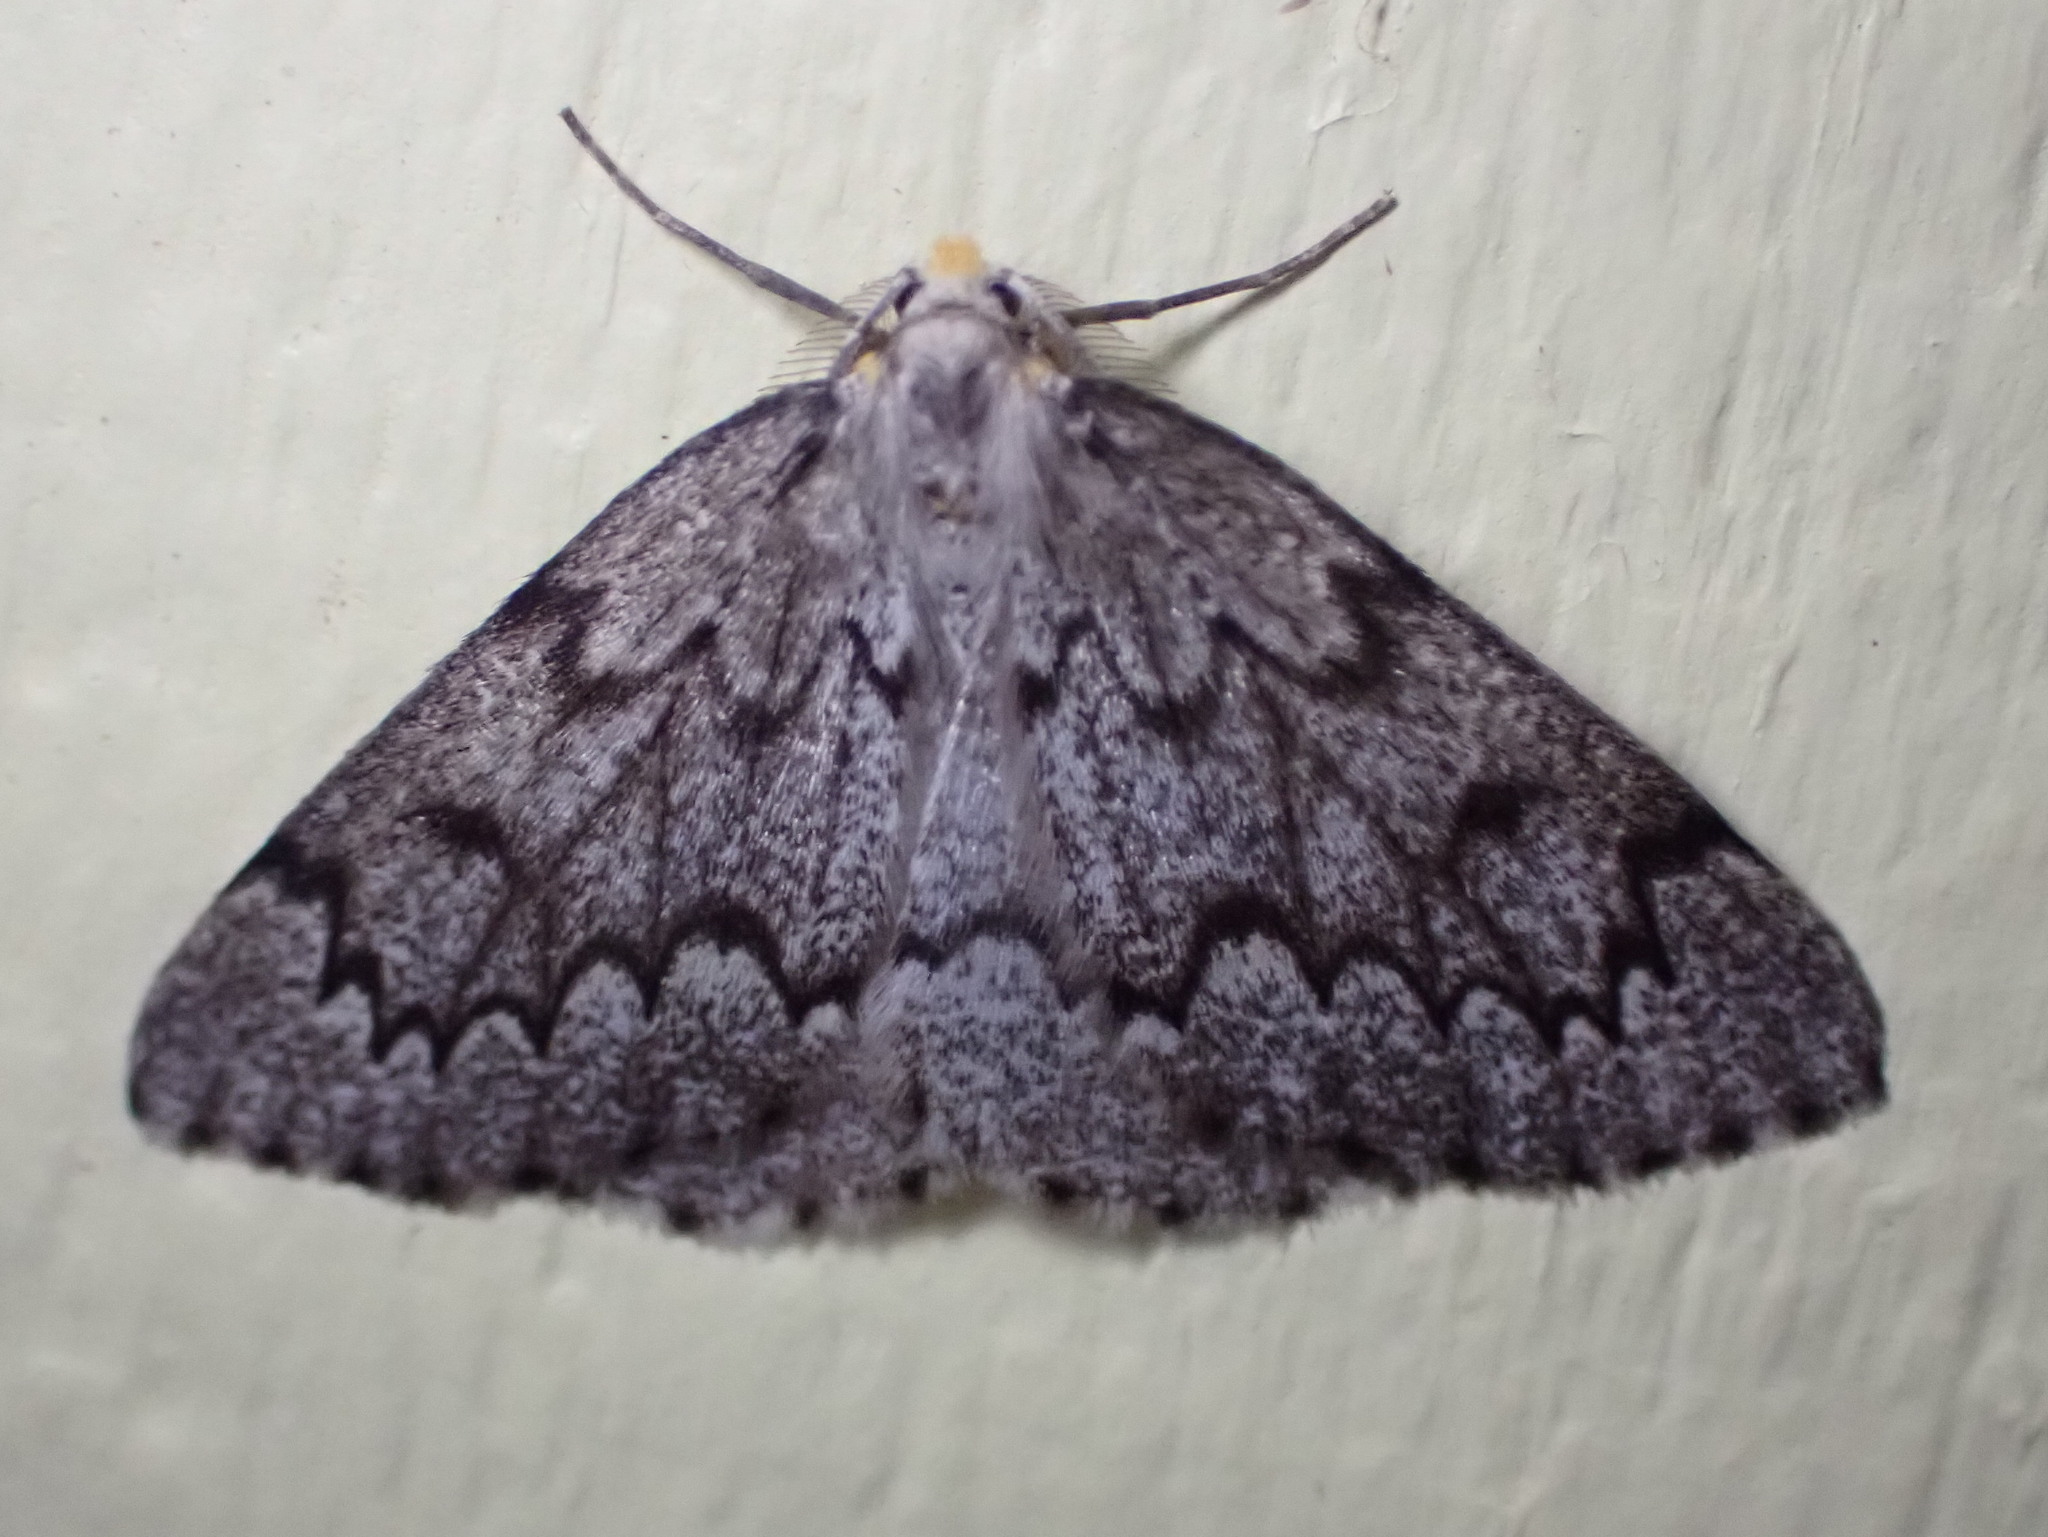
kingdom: Animalia
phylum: Arthropoda
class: Insecta
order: Lepidoptera
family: Geometridae
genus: Nepytia
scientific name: Nepytia canosaria
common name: False hemlock looper
